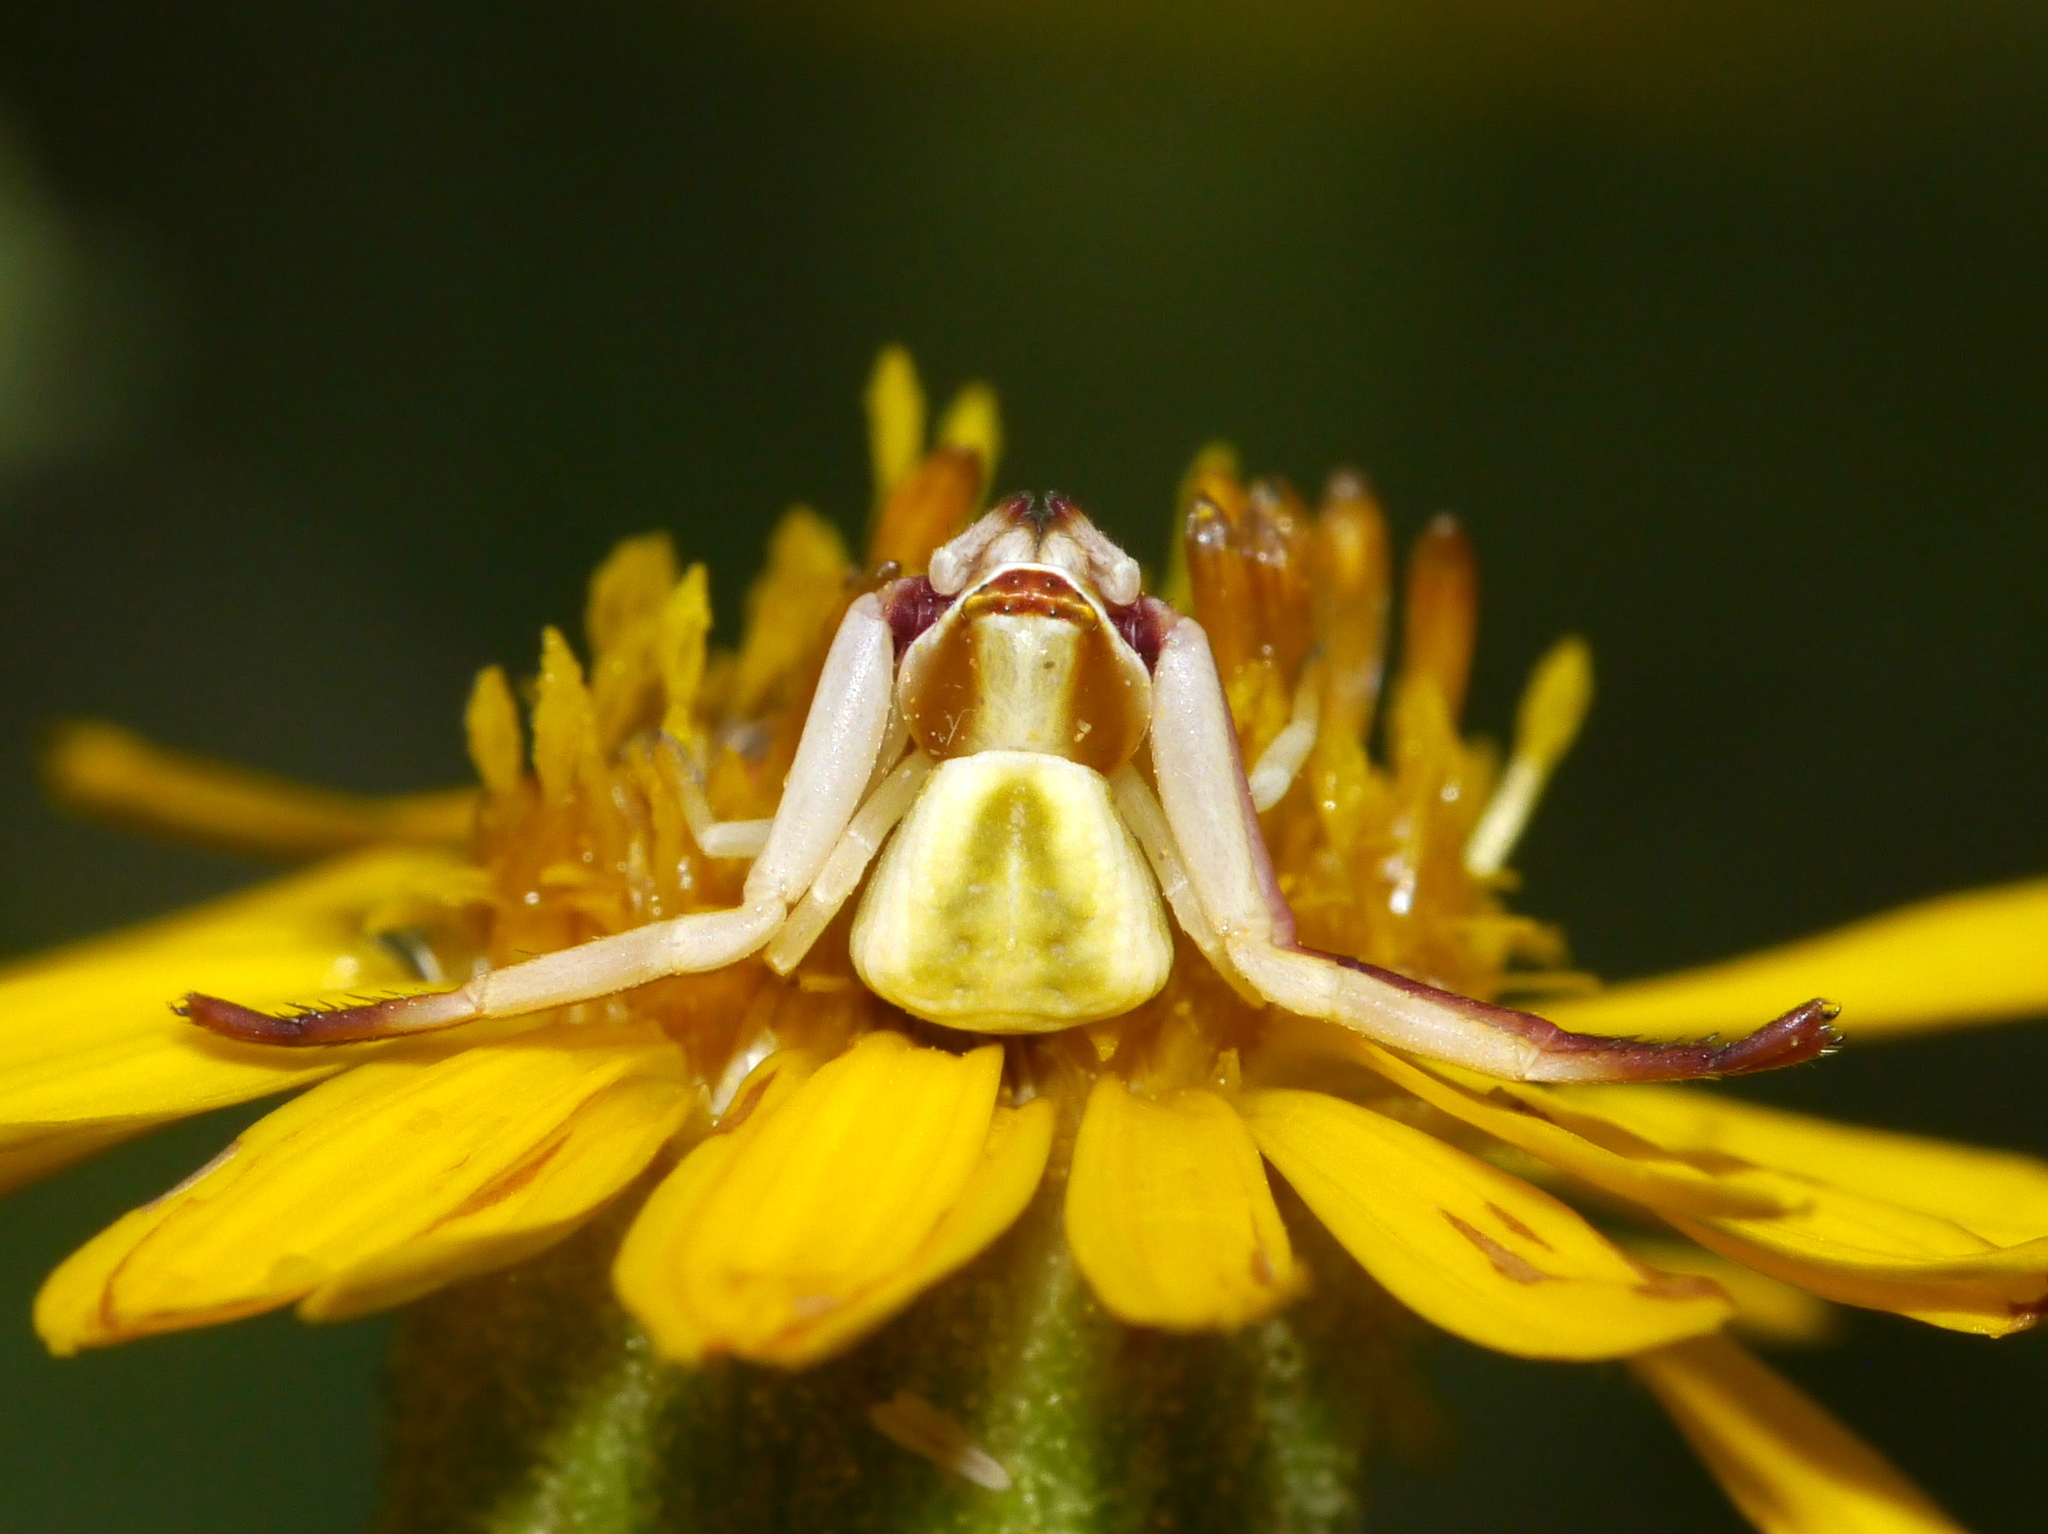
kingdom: Animalia
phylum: Arthropoda
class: Arachnida
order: Araneae
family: Thomisidae
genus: Misumenoides
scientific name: Misumenoides formosipes
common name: White-banded crab spider
